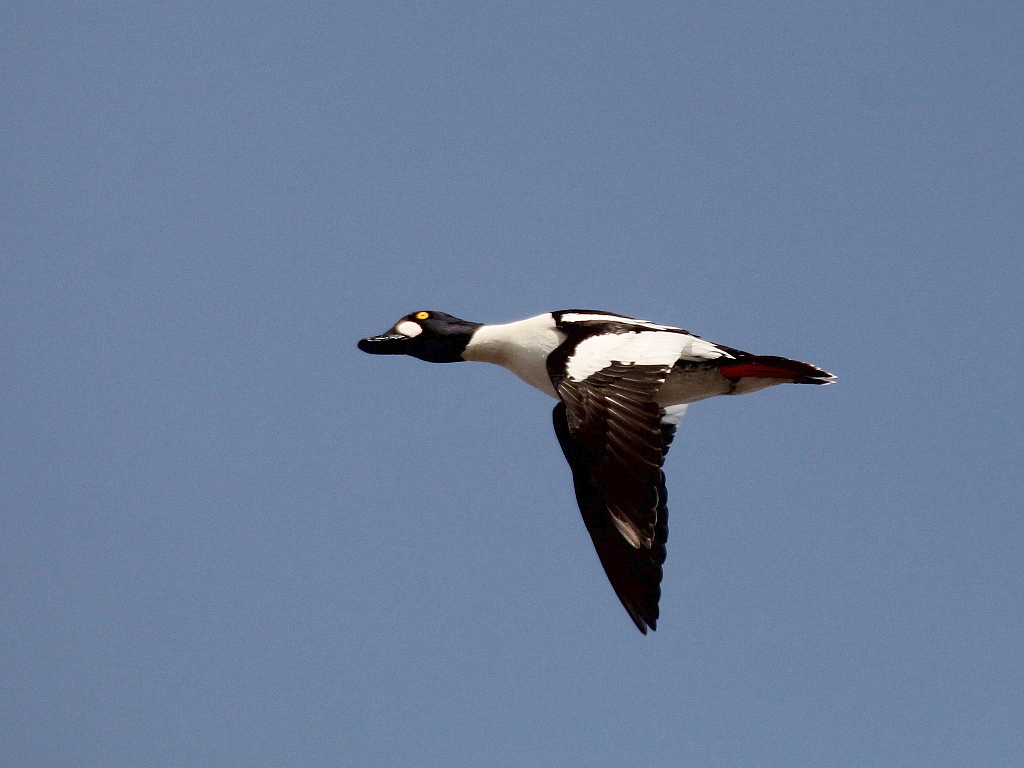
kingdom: Animalia
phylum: Chordata
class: Aves
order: Anseriformes
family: Anatidae
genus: Bucephala
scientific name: Bucephala clangula
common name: Common goldeneye
